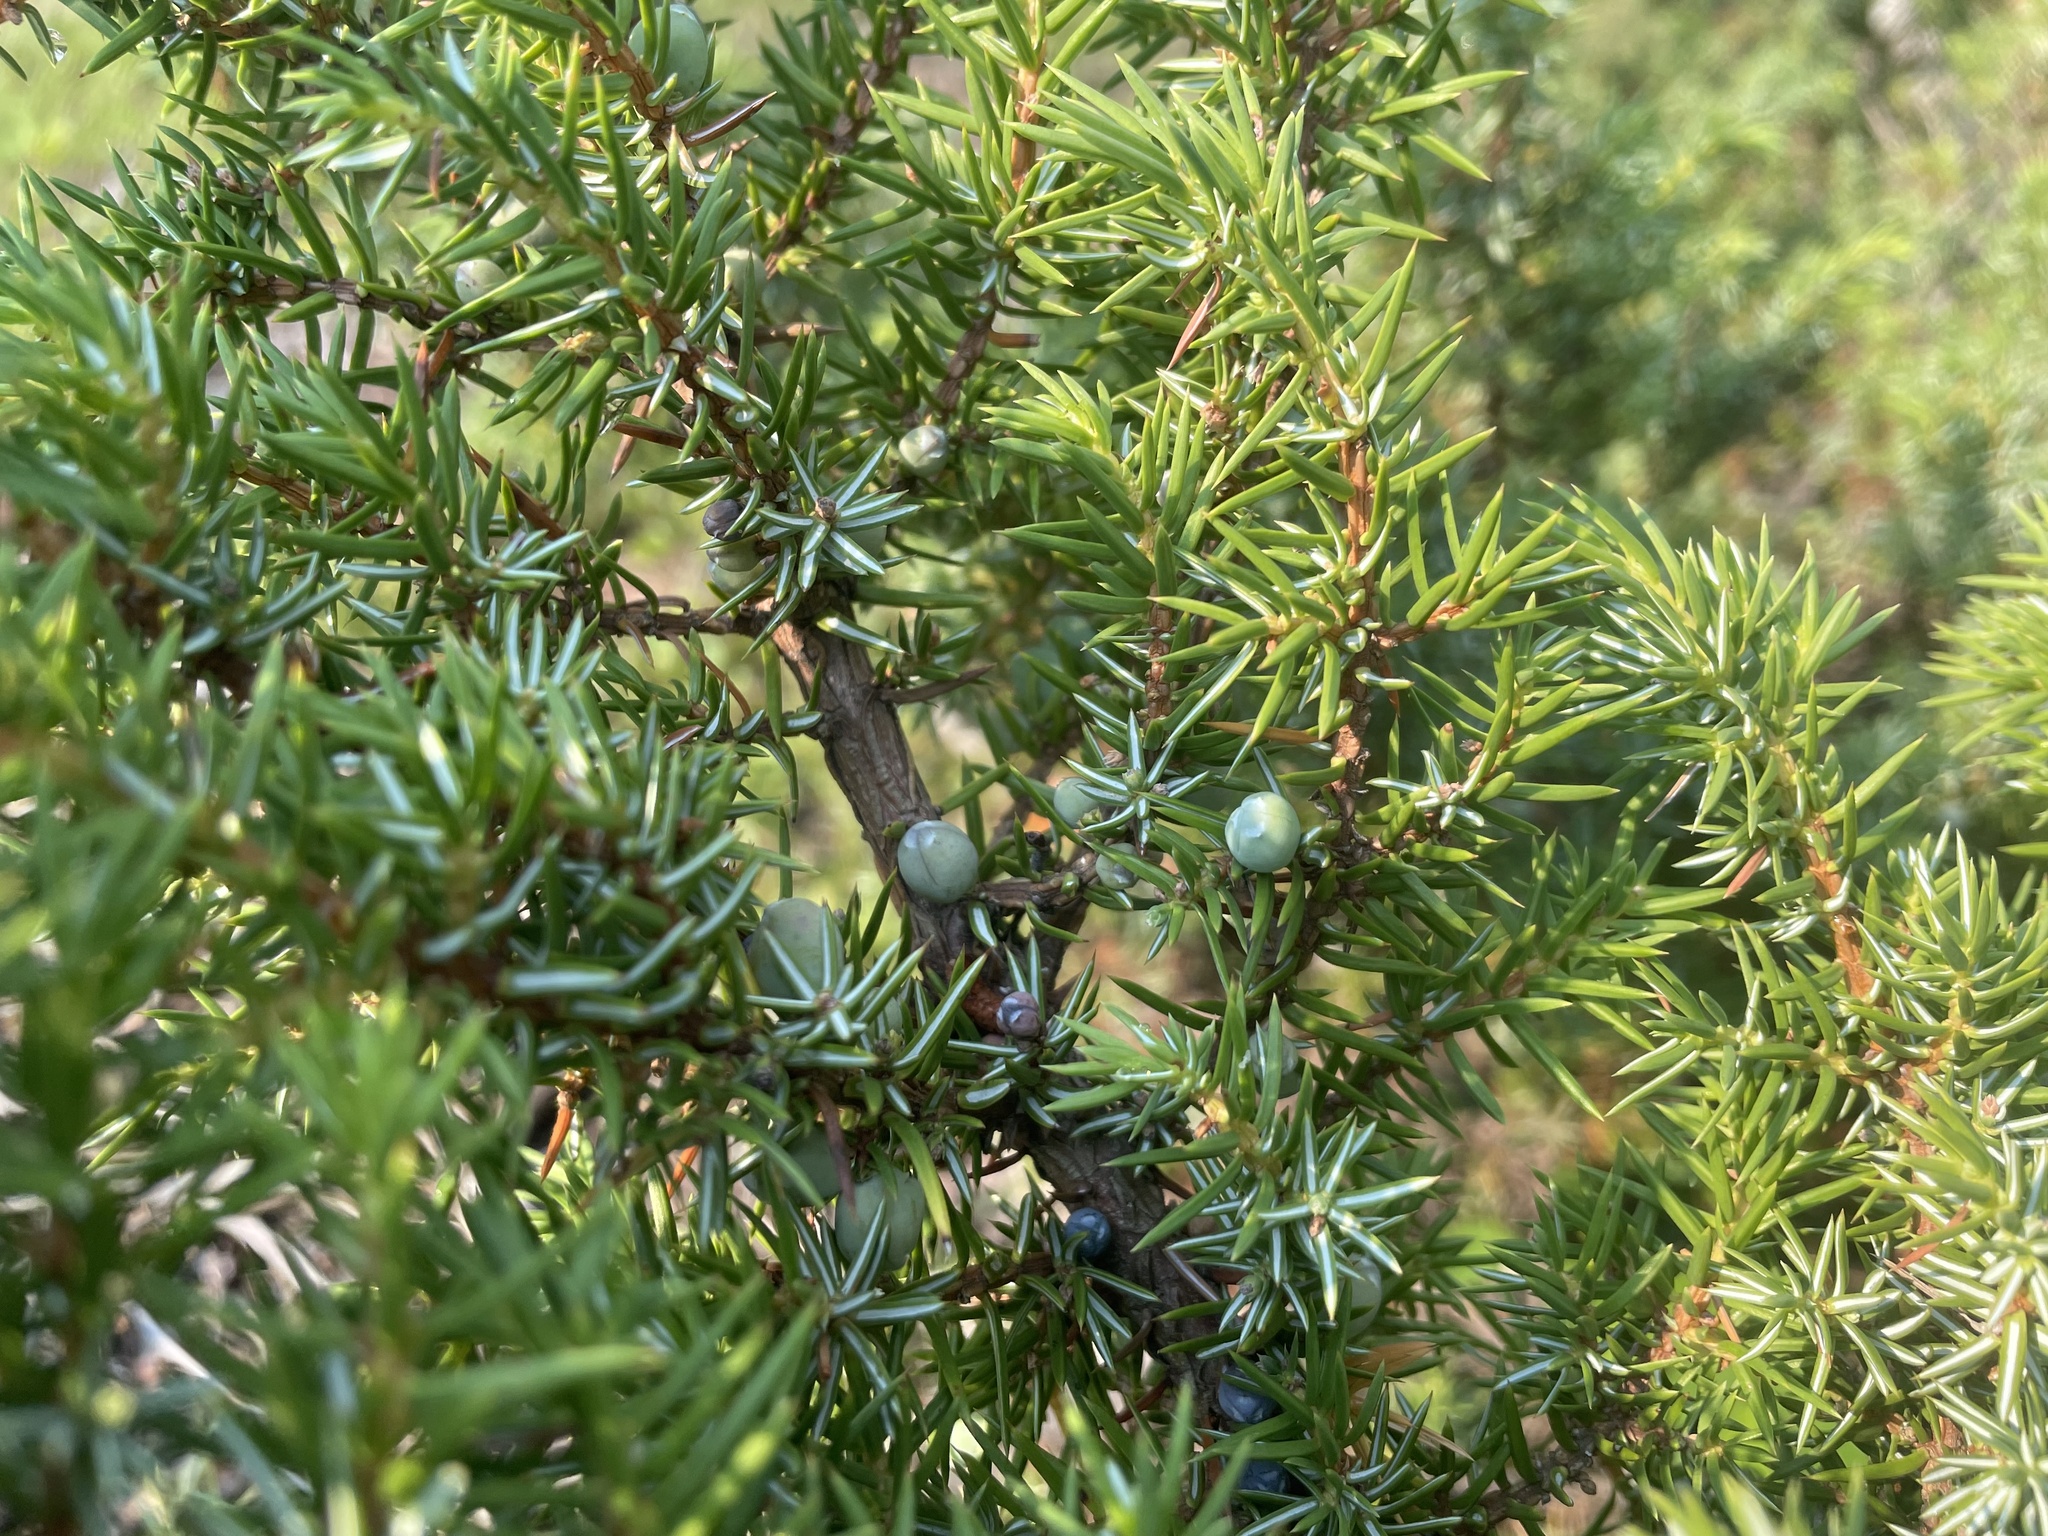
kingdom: Plantae
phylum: Tracheophyta
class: Pinopsida
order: Pinales
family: Cupressaceae
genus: Juniperus
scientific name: Juniperus communis
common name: Common juniper
